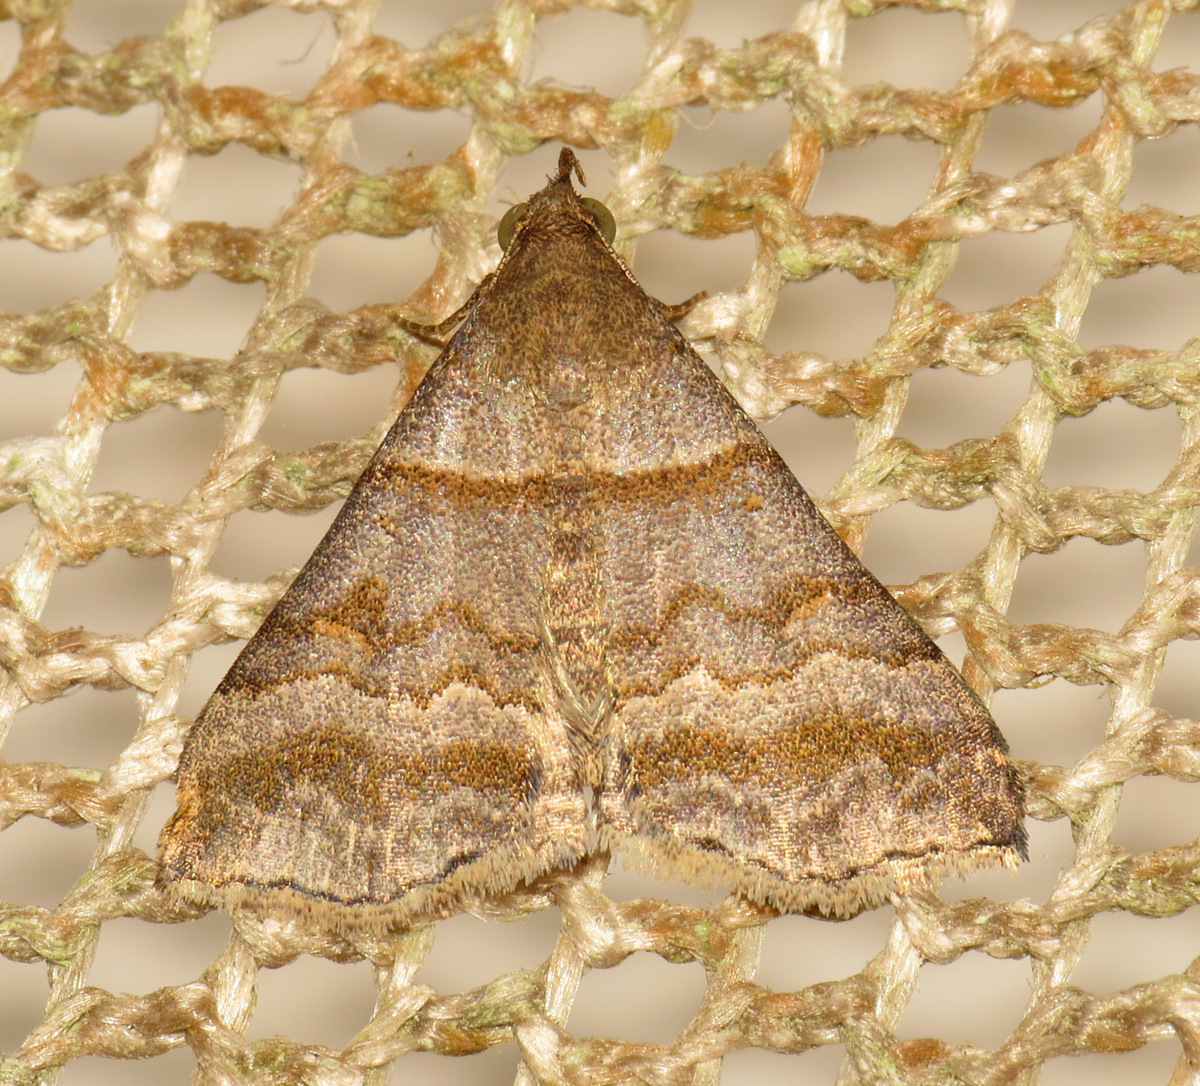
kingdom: Animalia
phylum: Arthropoda
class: Insecta
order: Lepidoptera
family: Erebidae
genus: Heterogramma
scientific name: Heterogramma circumflexalis
